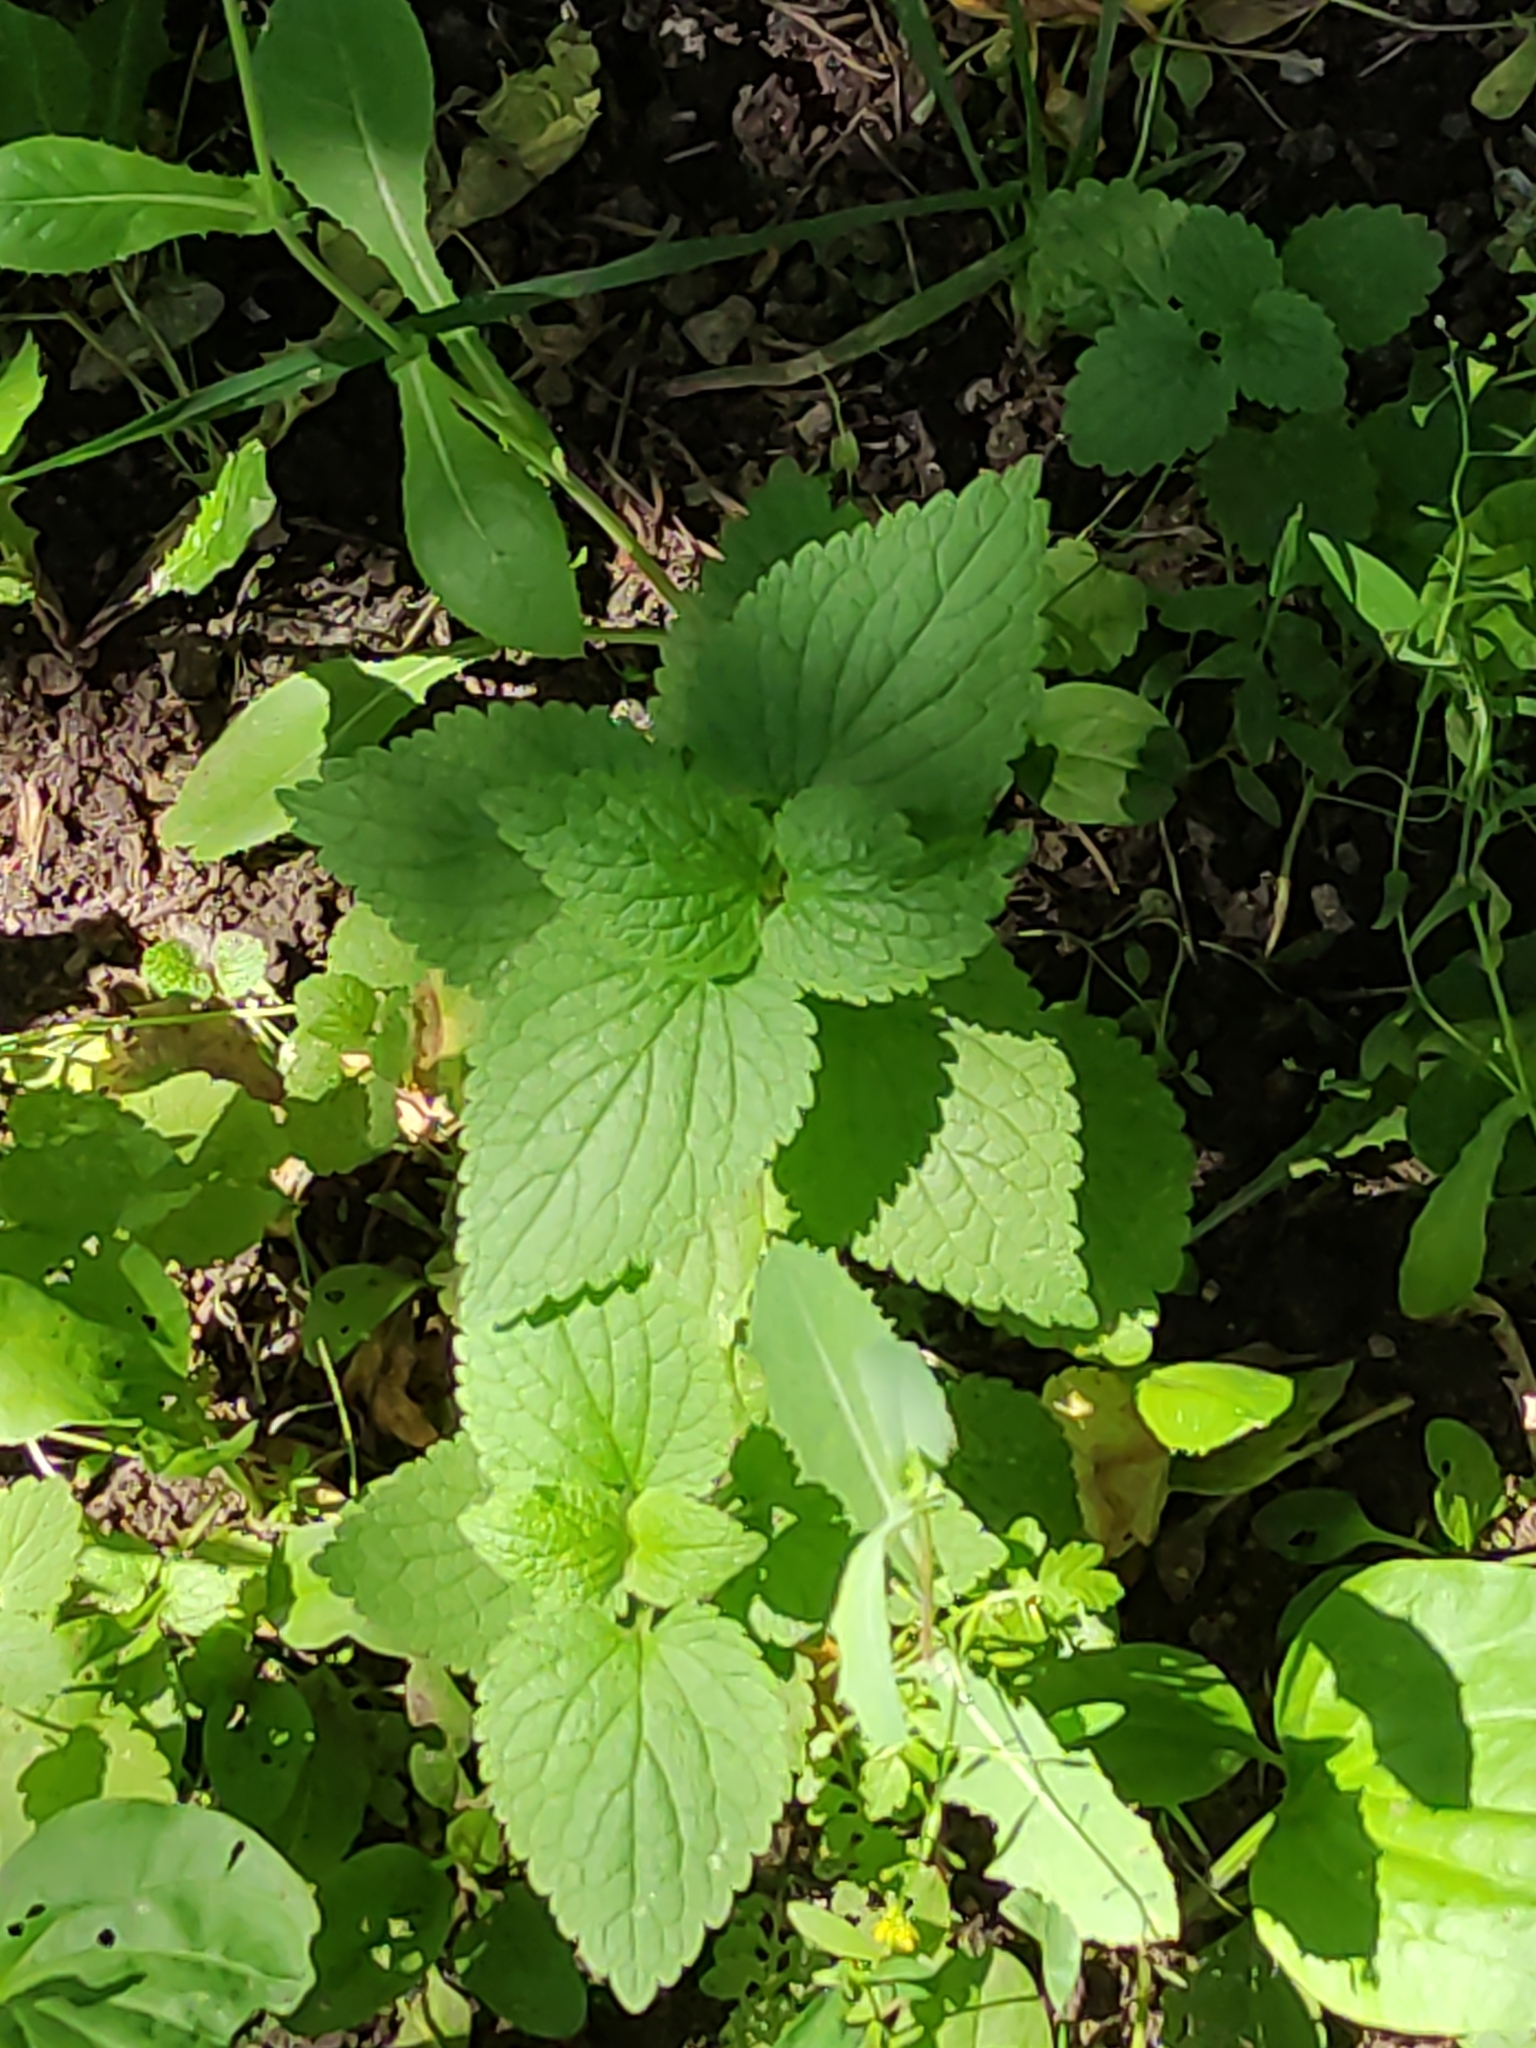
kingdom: Plantae
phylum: Tracheophyta
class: Magnoliopsida
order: Lamiales
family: Lamiaceae
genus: Lamium
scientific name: Lamium album
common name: White dead-nettle
